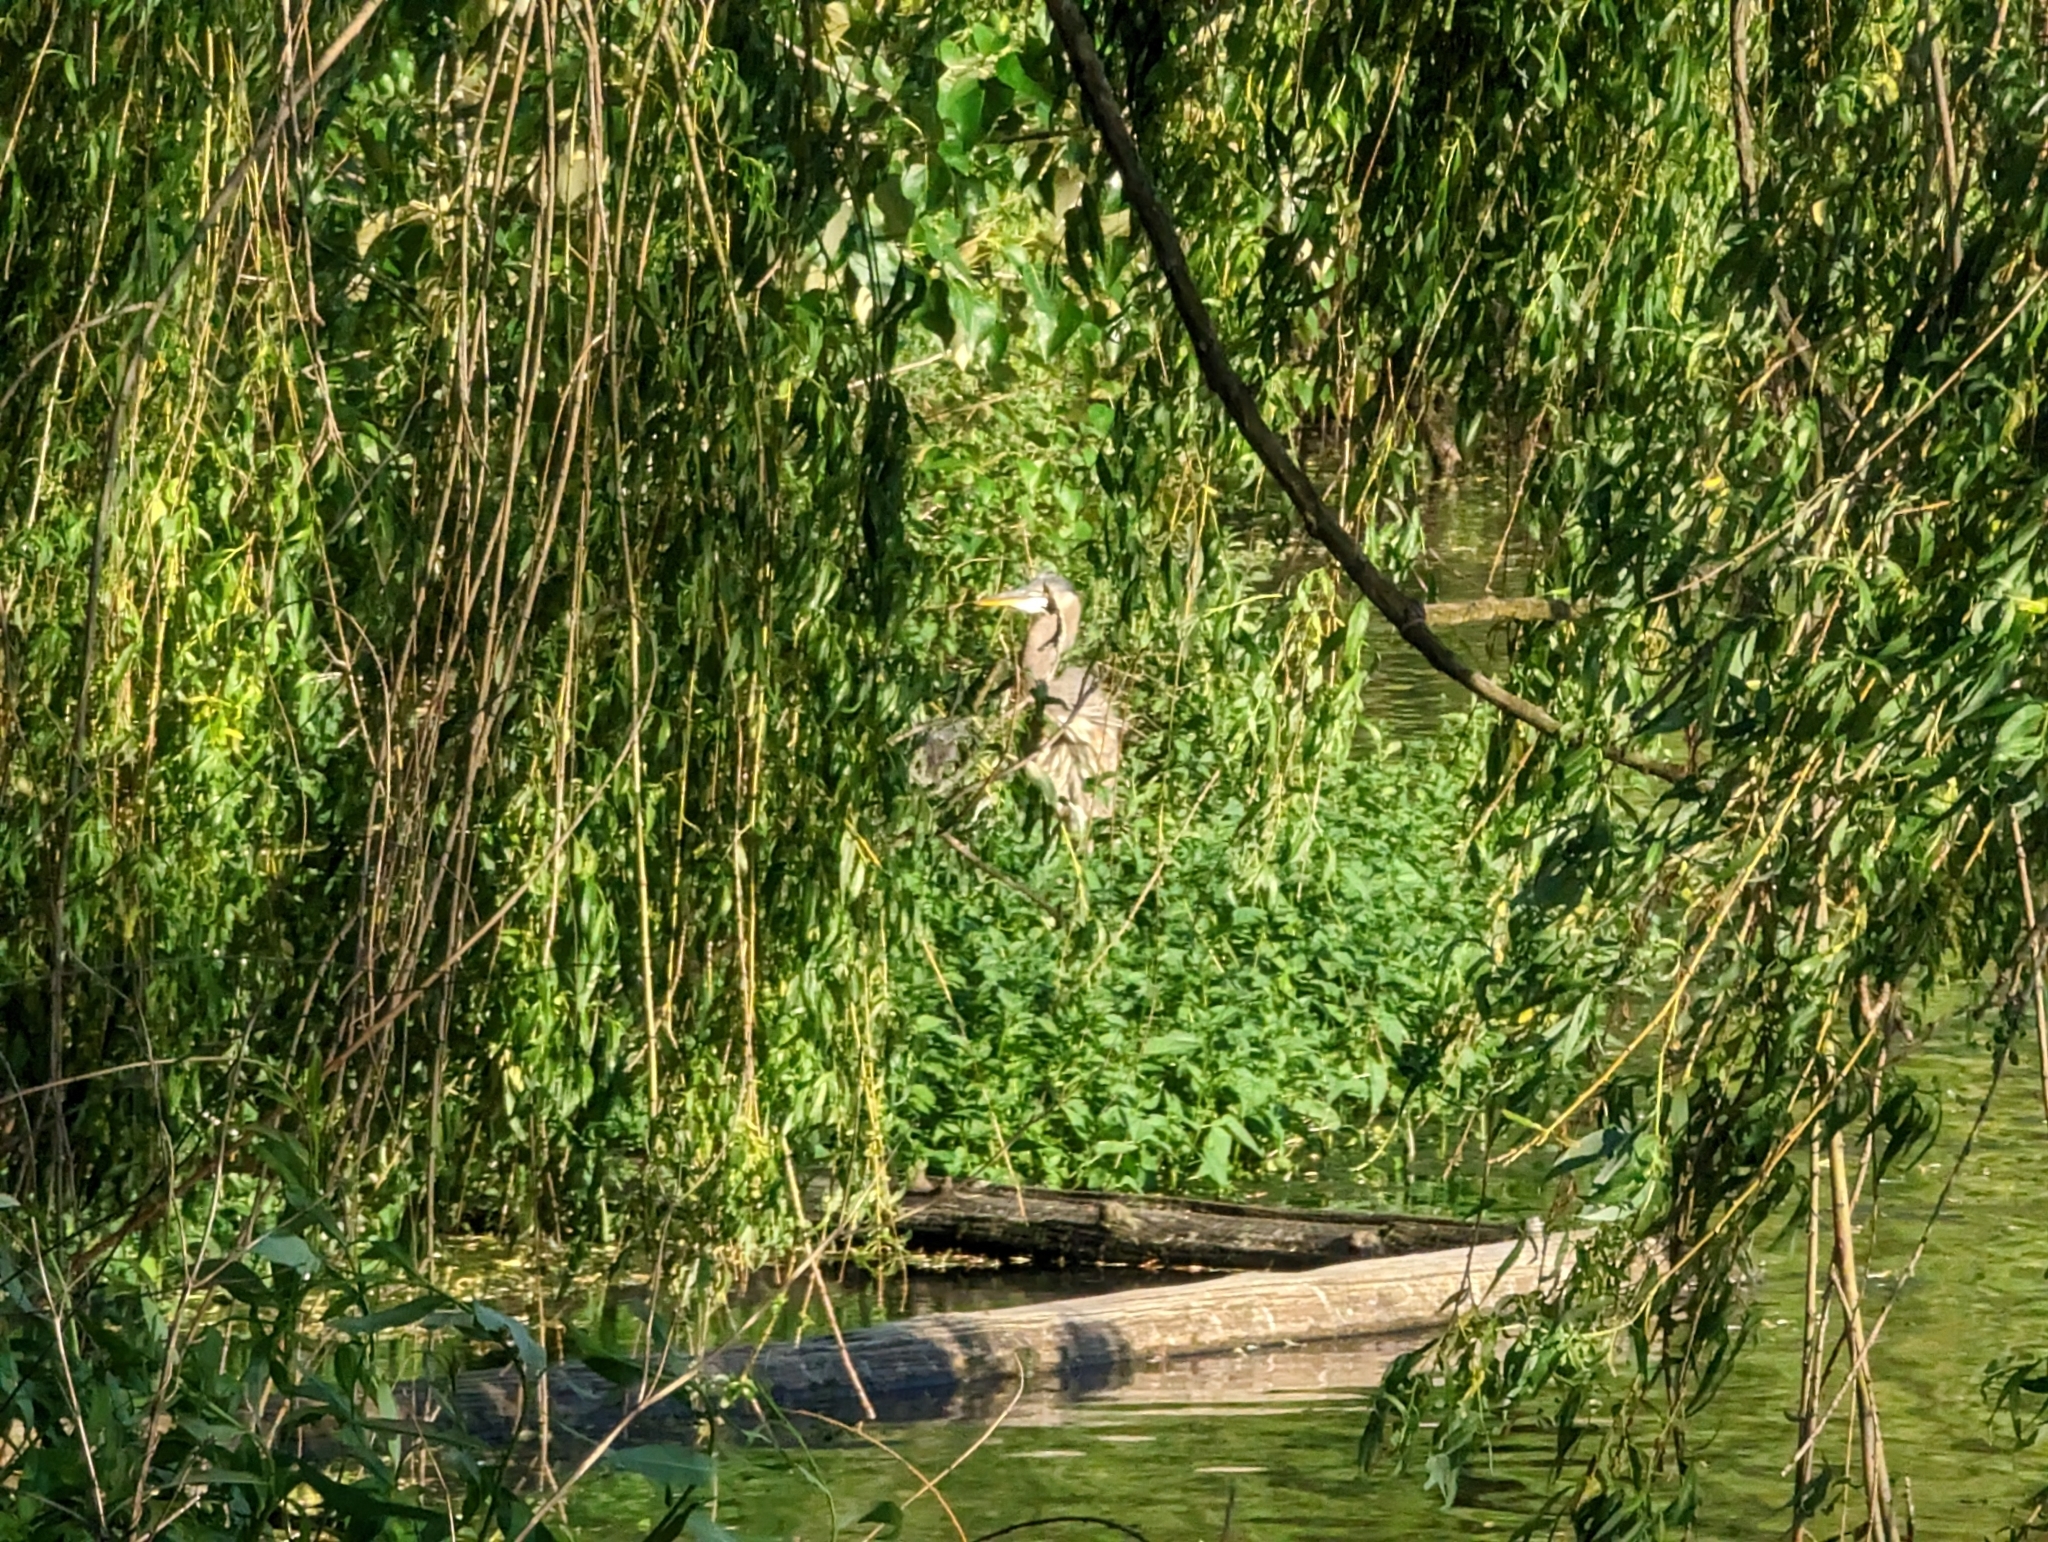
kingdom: Animalia
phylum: Chordata
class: Aves
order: Pelecaniformes
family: Ardeidae
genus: Ardea
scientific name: Ardea herodias
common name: Great blue heron
